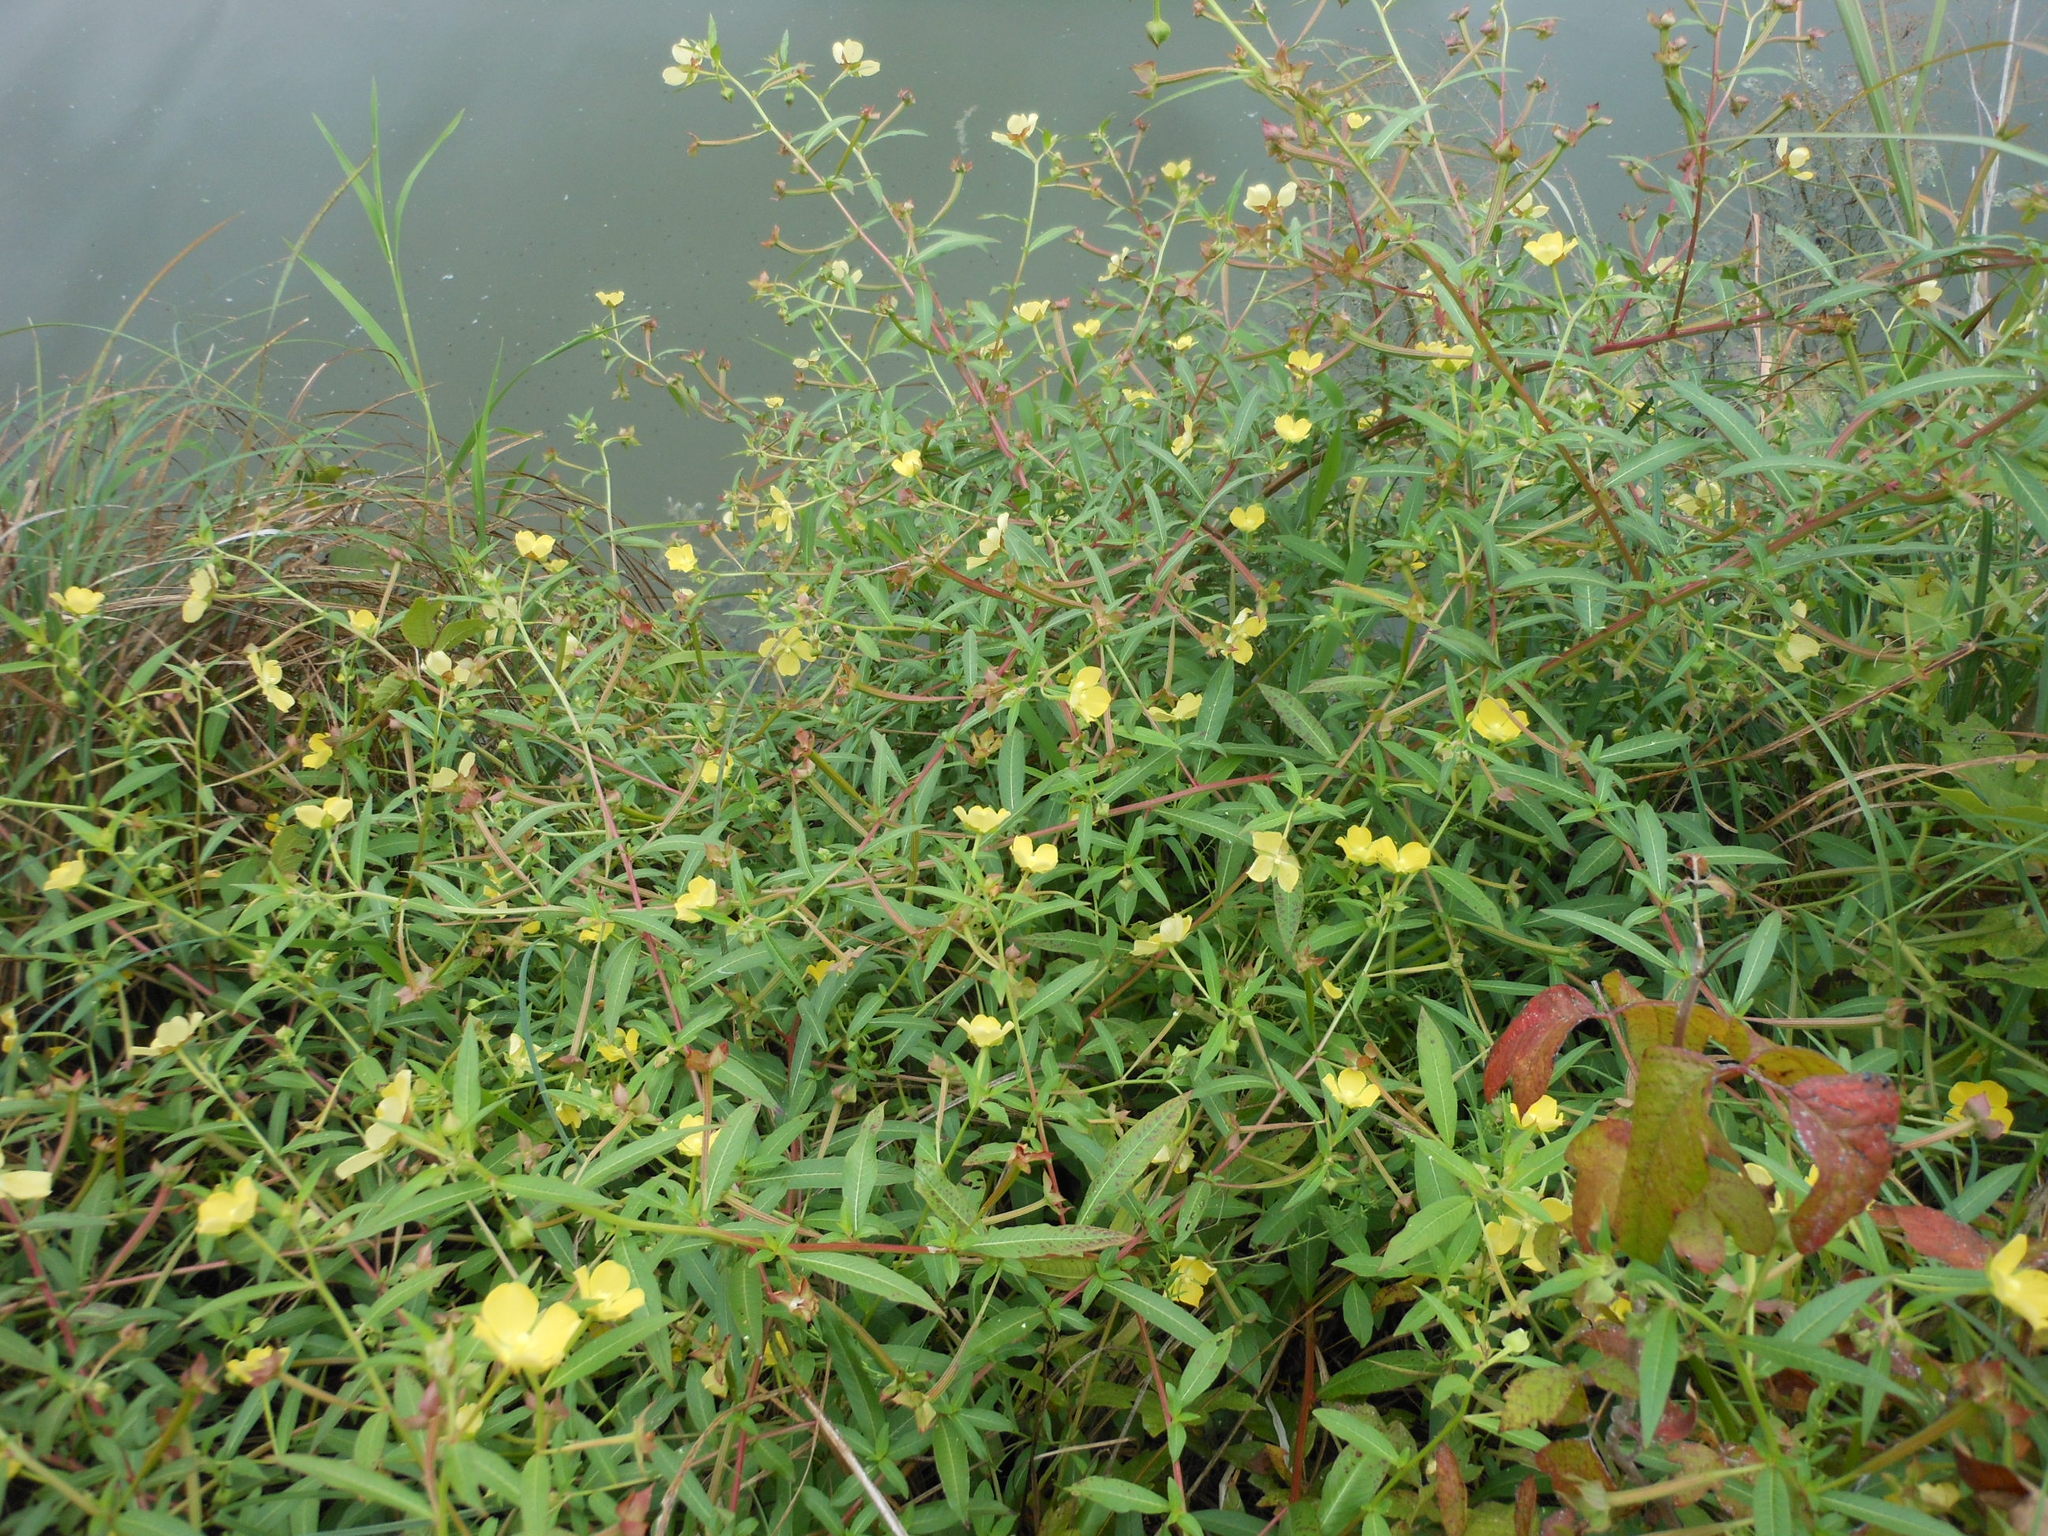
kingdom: Plantae
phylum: Tracheophyta
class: Magnoliopsida
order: Myrtales
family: Onagraceae
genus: Ludwigia
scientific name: Ludwigia octovalvis
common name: Water-primrose
